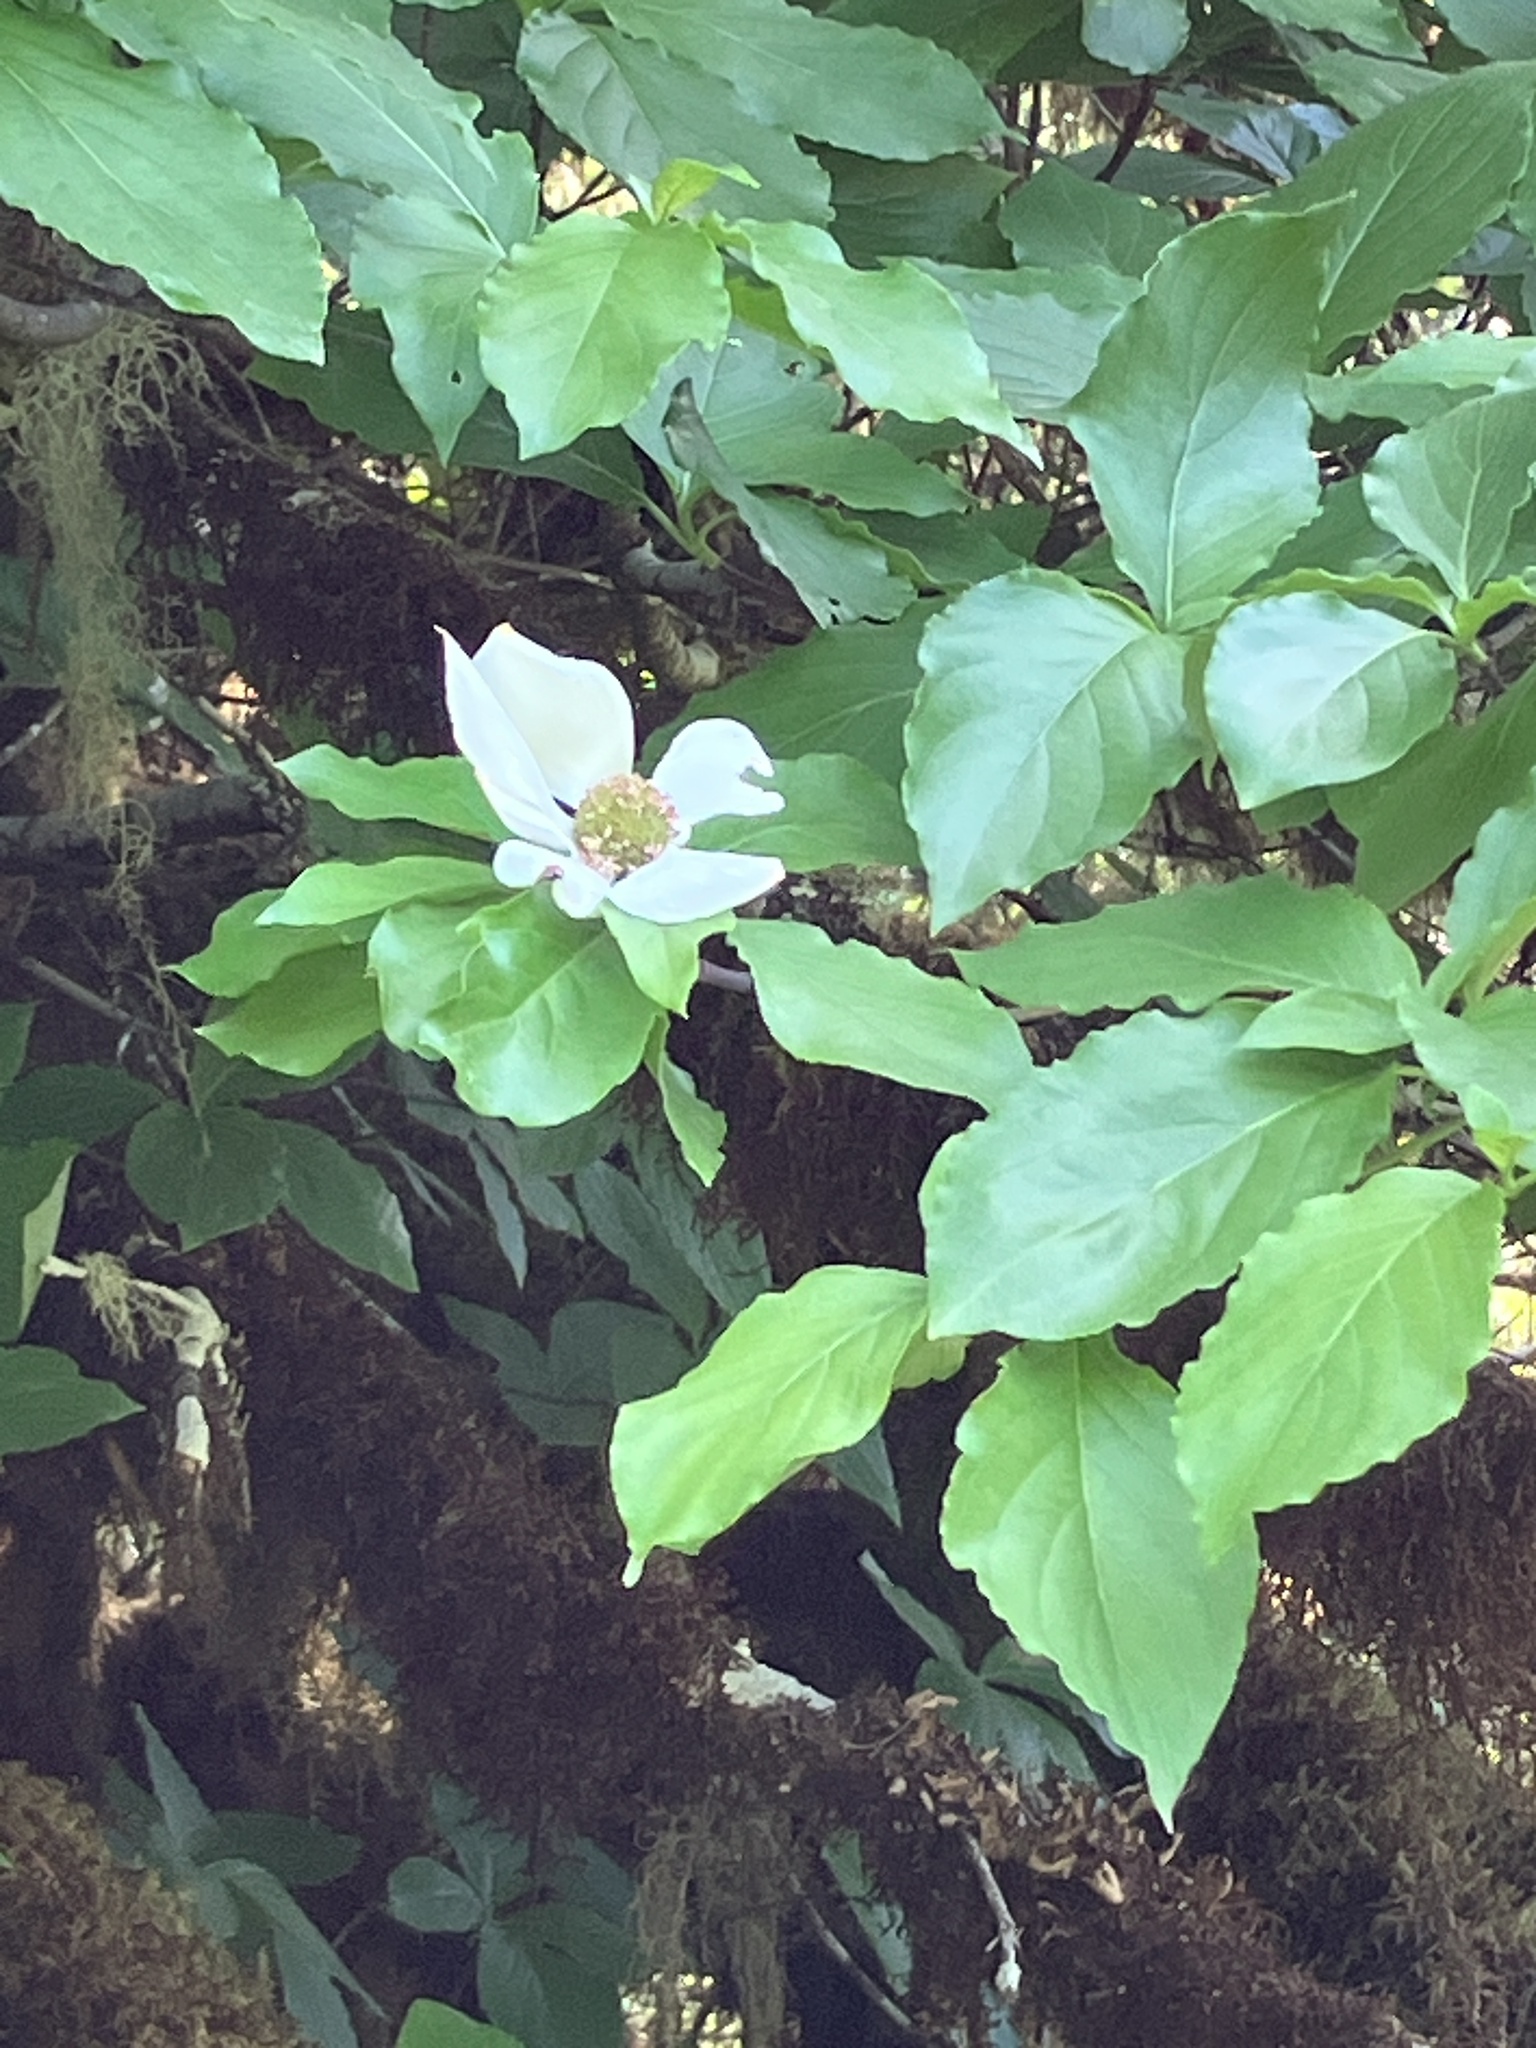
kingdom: Plantae
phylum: Tracheophyta
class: Magnoliopsida
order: Cornales
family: Cornaceae
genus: Cornus
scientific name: Cornus nuttallii
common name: Pacific dogwood
